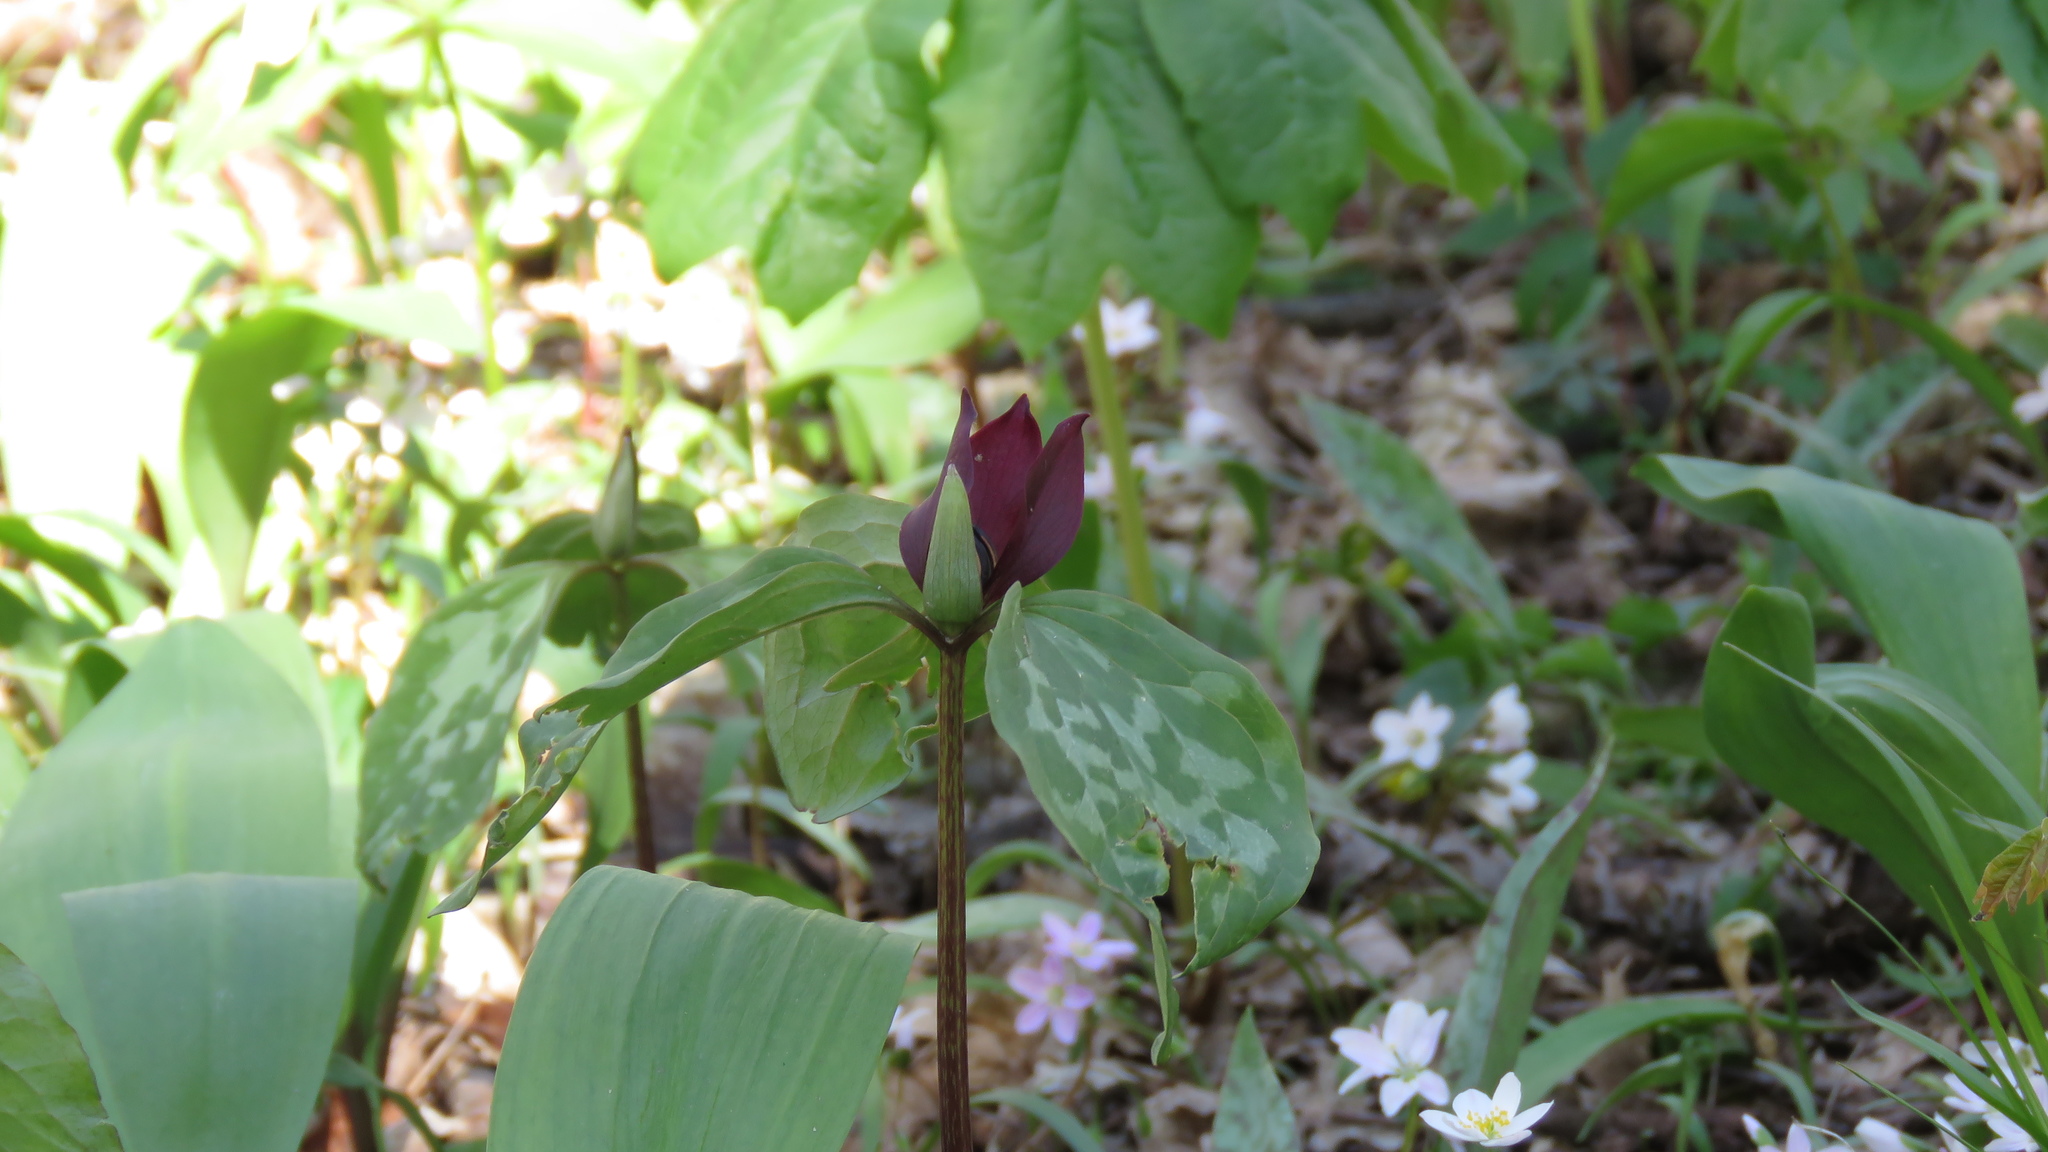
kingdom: Plantae
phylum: Tracheophyta
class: Liliopsida
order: Liliales
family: Melanthiaceae
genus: Trillium
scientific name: Trillium recurvatum
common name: Bloody butcher
